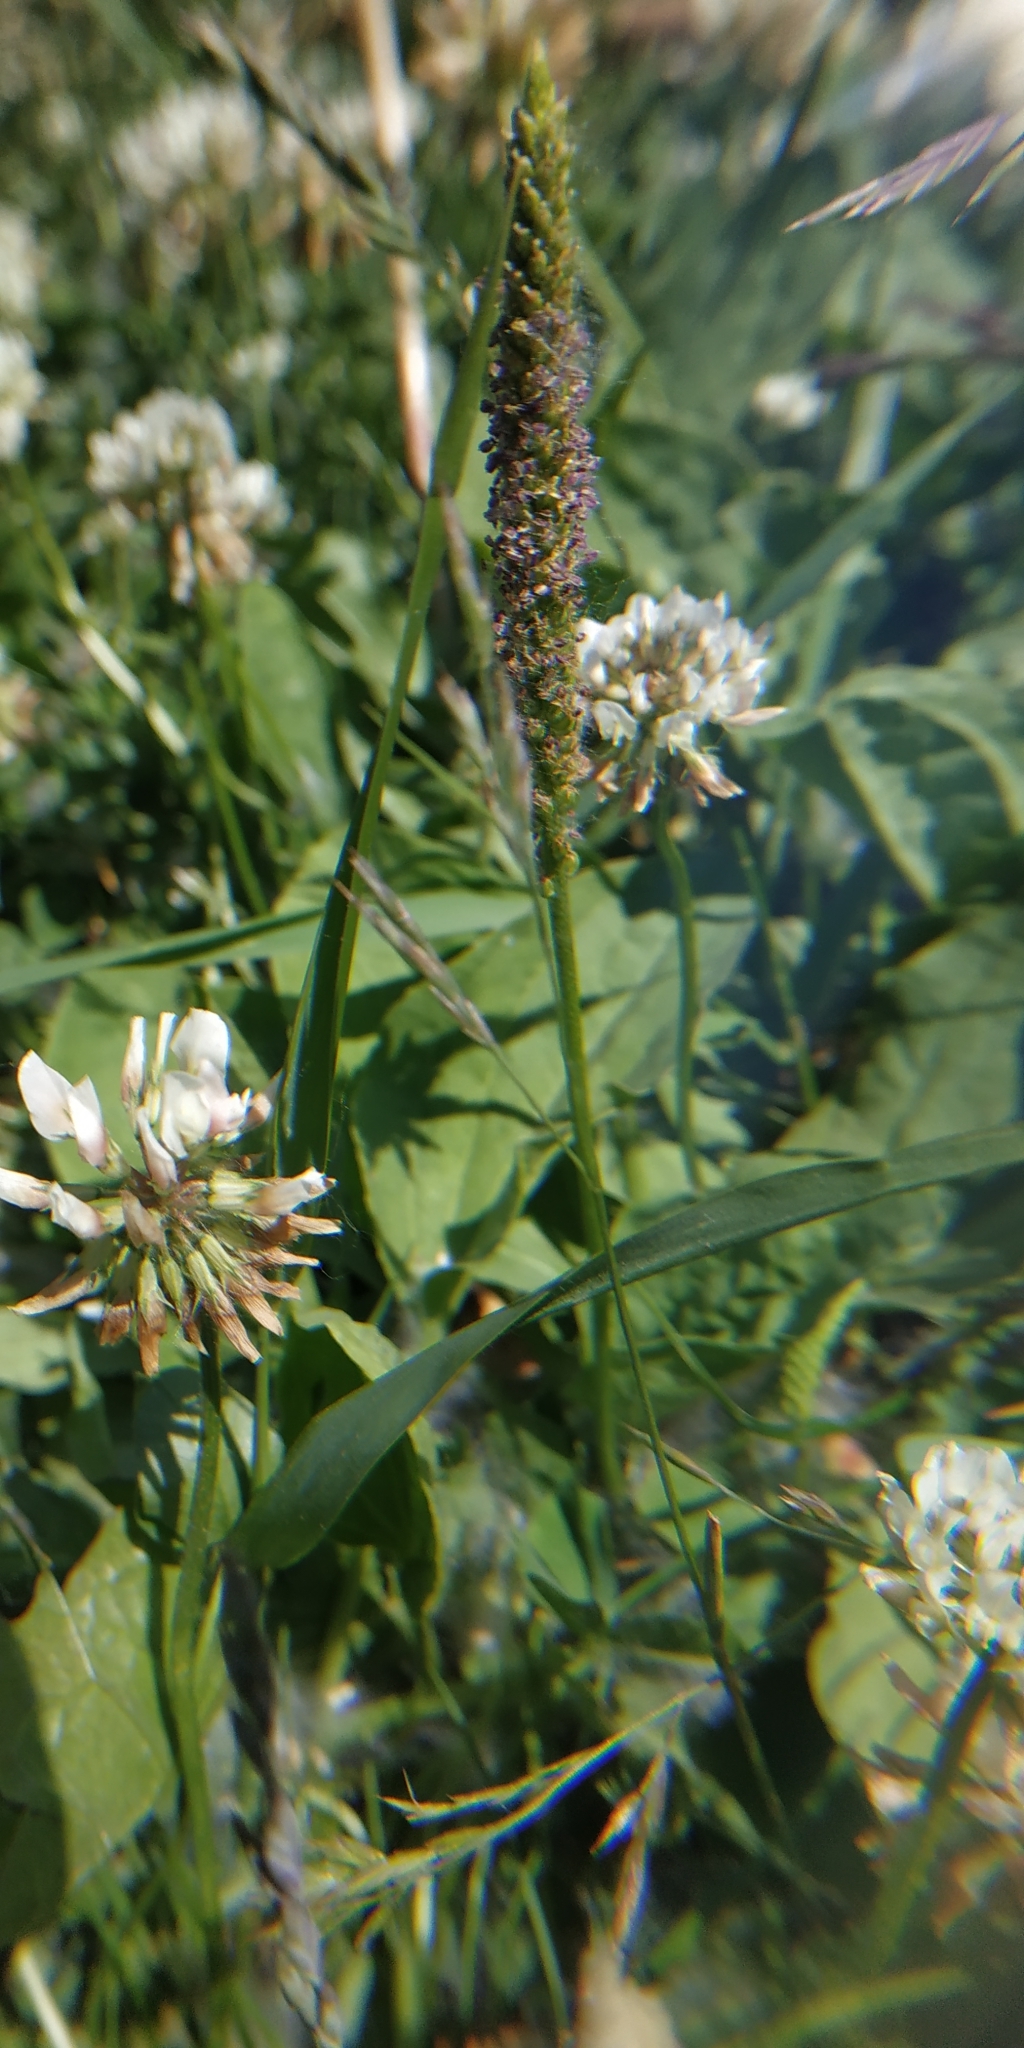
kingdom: Plantae
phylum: Tracheophyta
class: Magnoliopsida
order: Lamiales
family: Plantaginaceae
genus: Plantago
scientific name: Plantago major
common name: Common plantain
